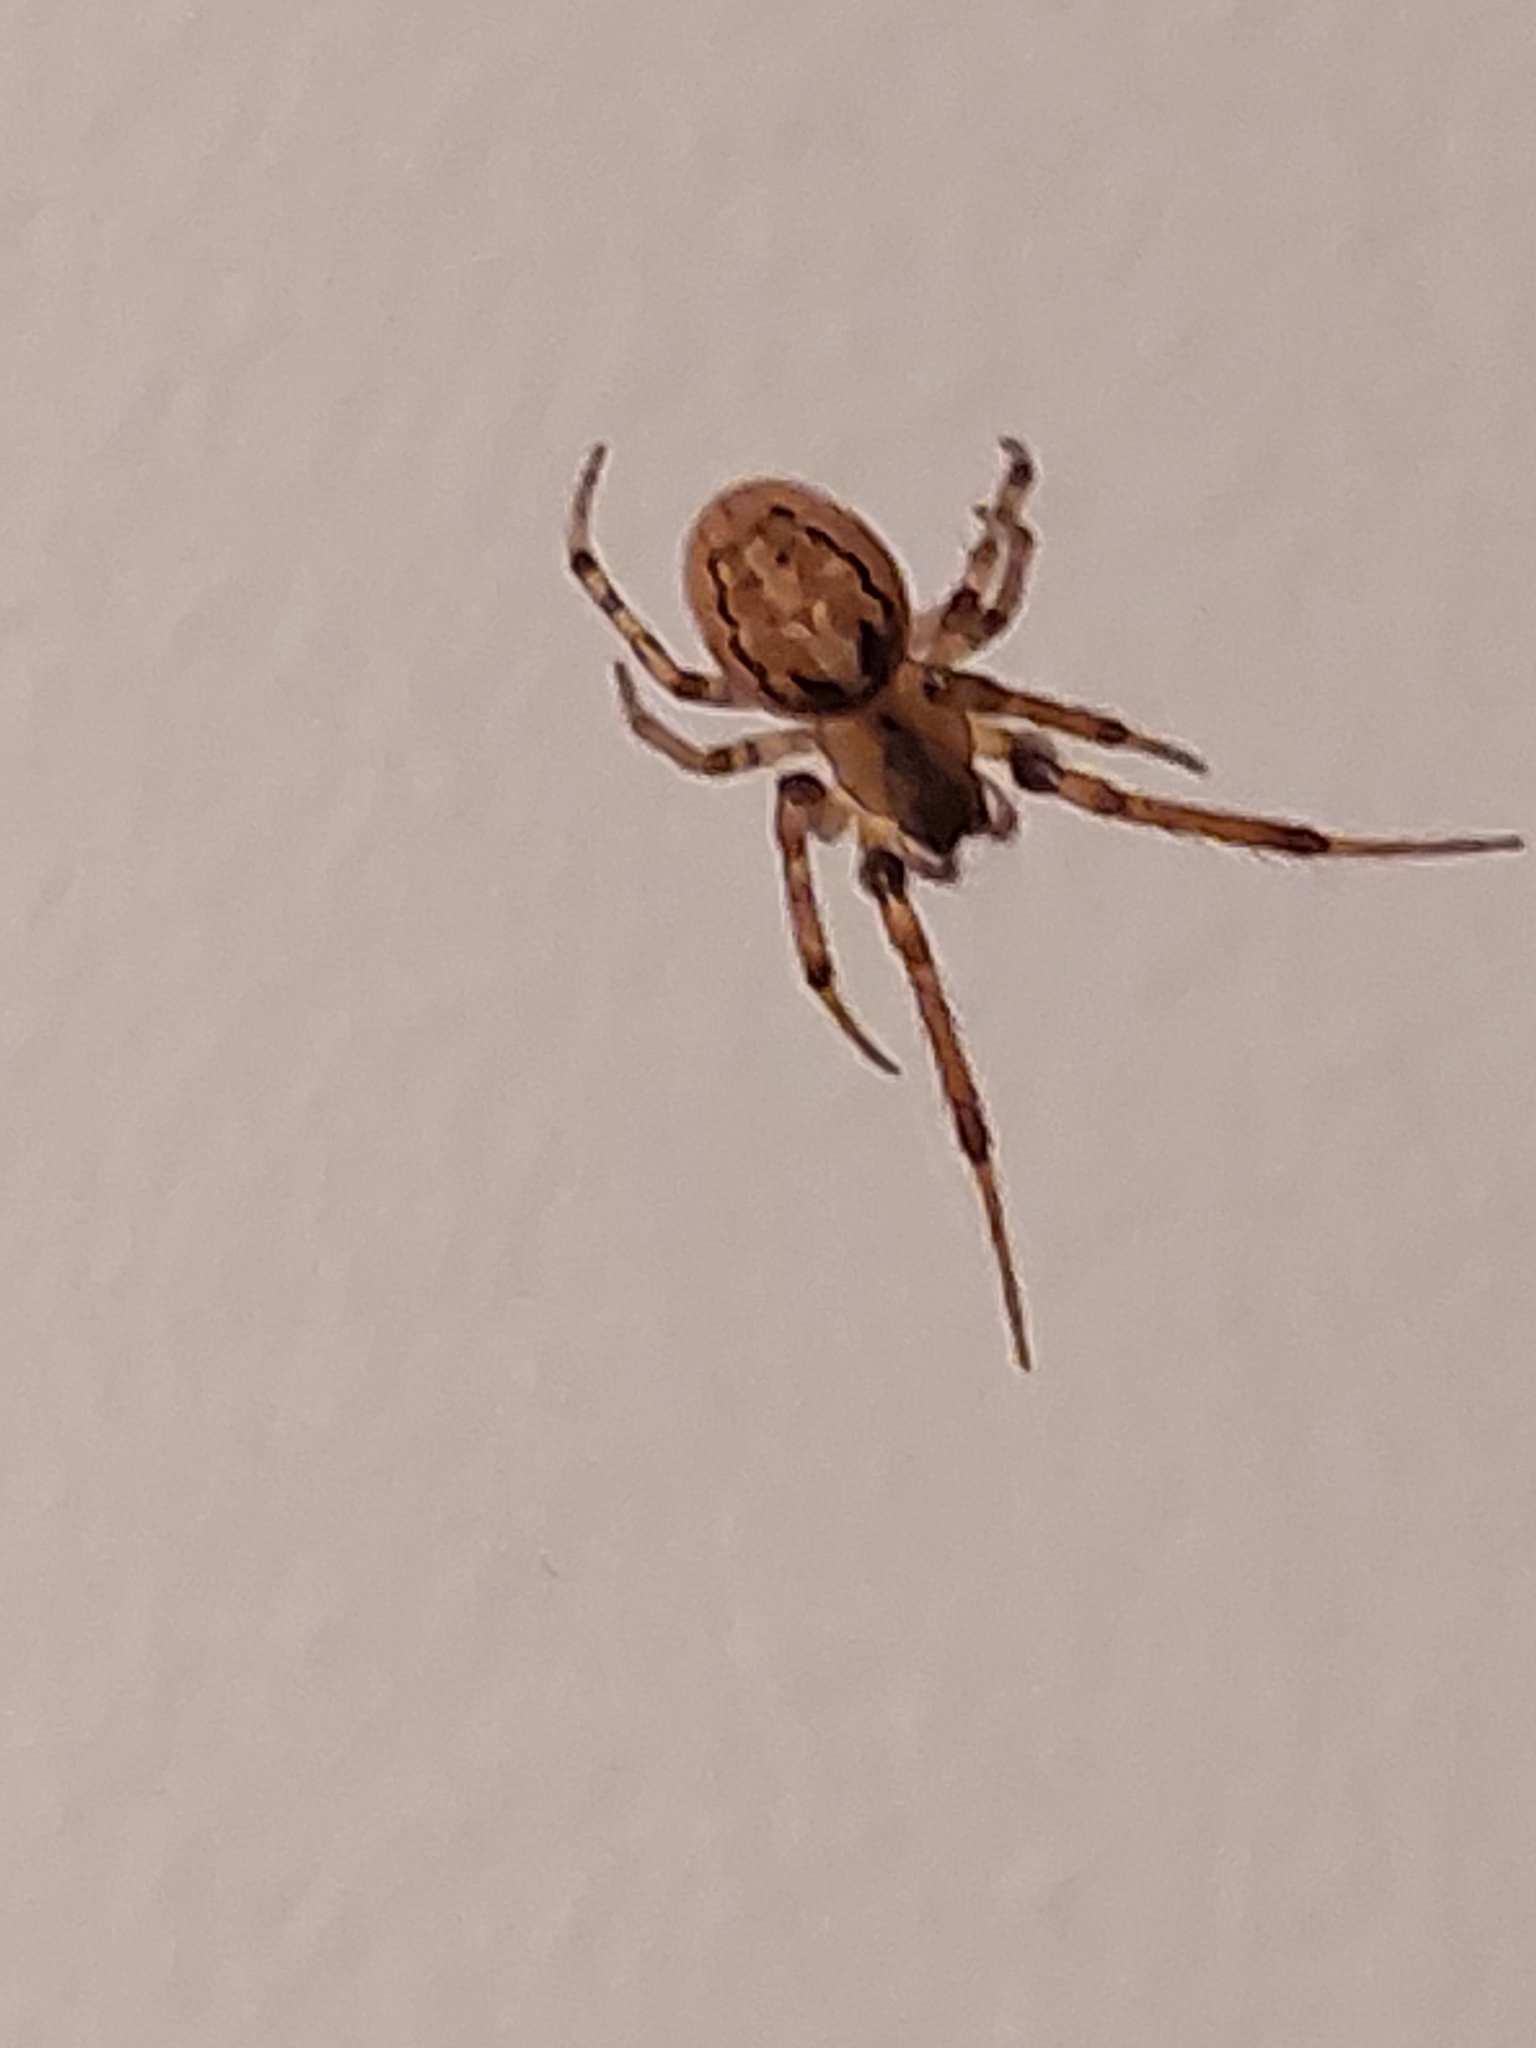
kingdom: Animalia
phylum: Arthropoda
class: Arachnida
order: Araneae
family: Araneidae
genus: Zygiella
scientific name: Zygiella x-notata
